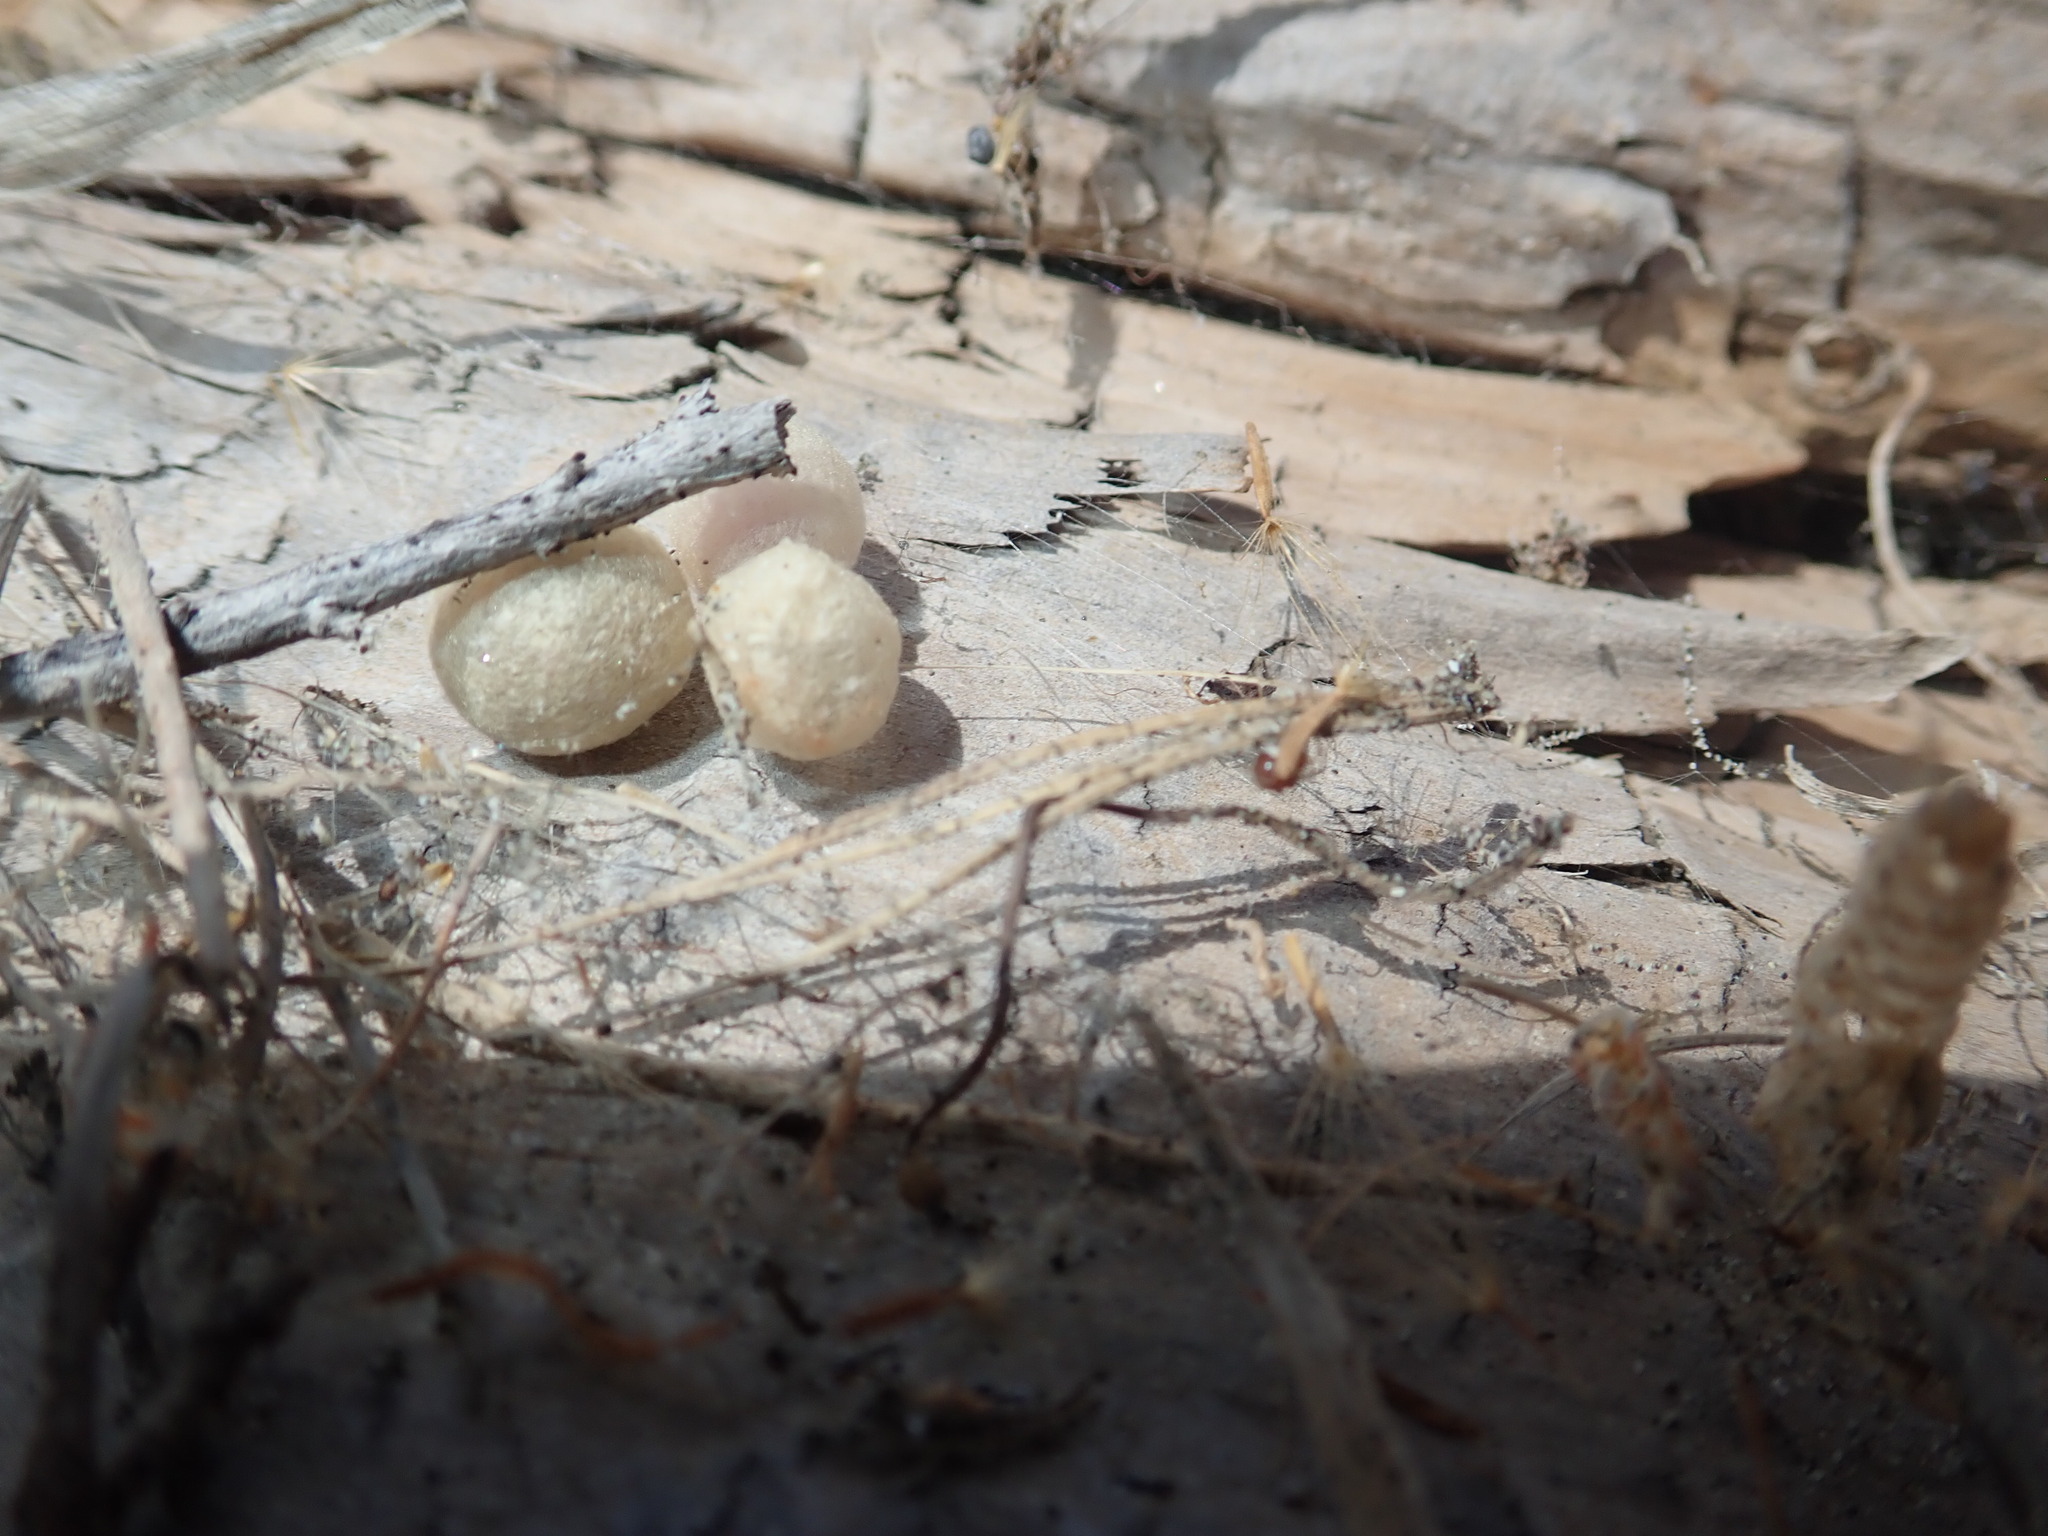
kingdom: Animalia
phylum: Arthropoda
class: Arachnida
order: Araneae
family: Theridiidae
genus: Latrodectus
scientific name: Latrodectus katipo
